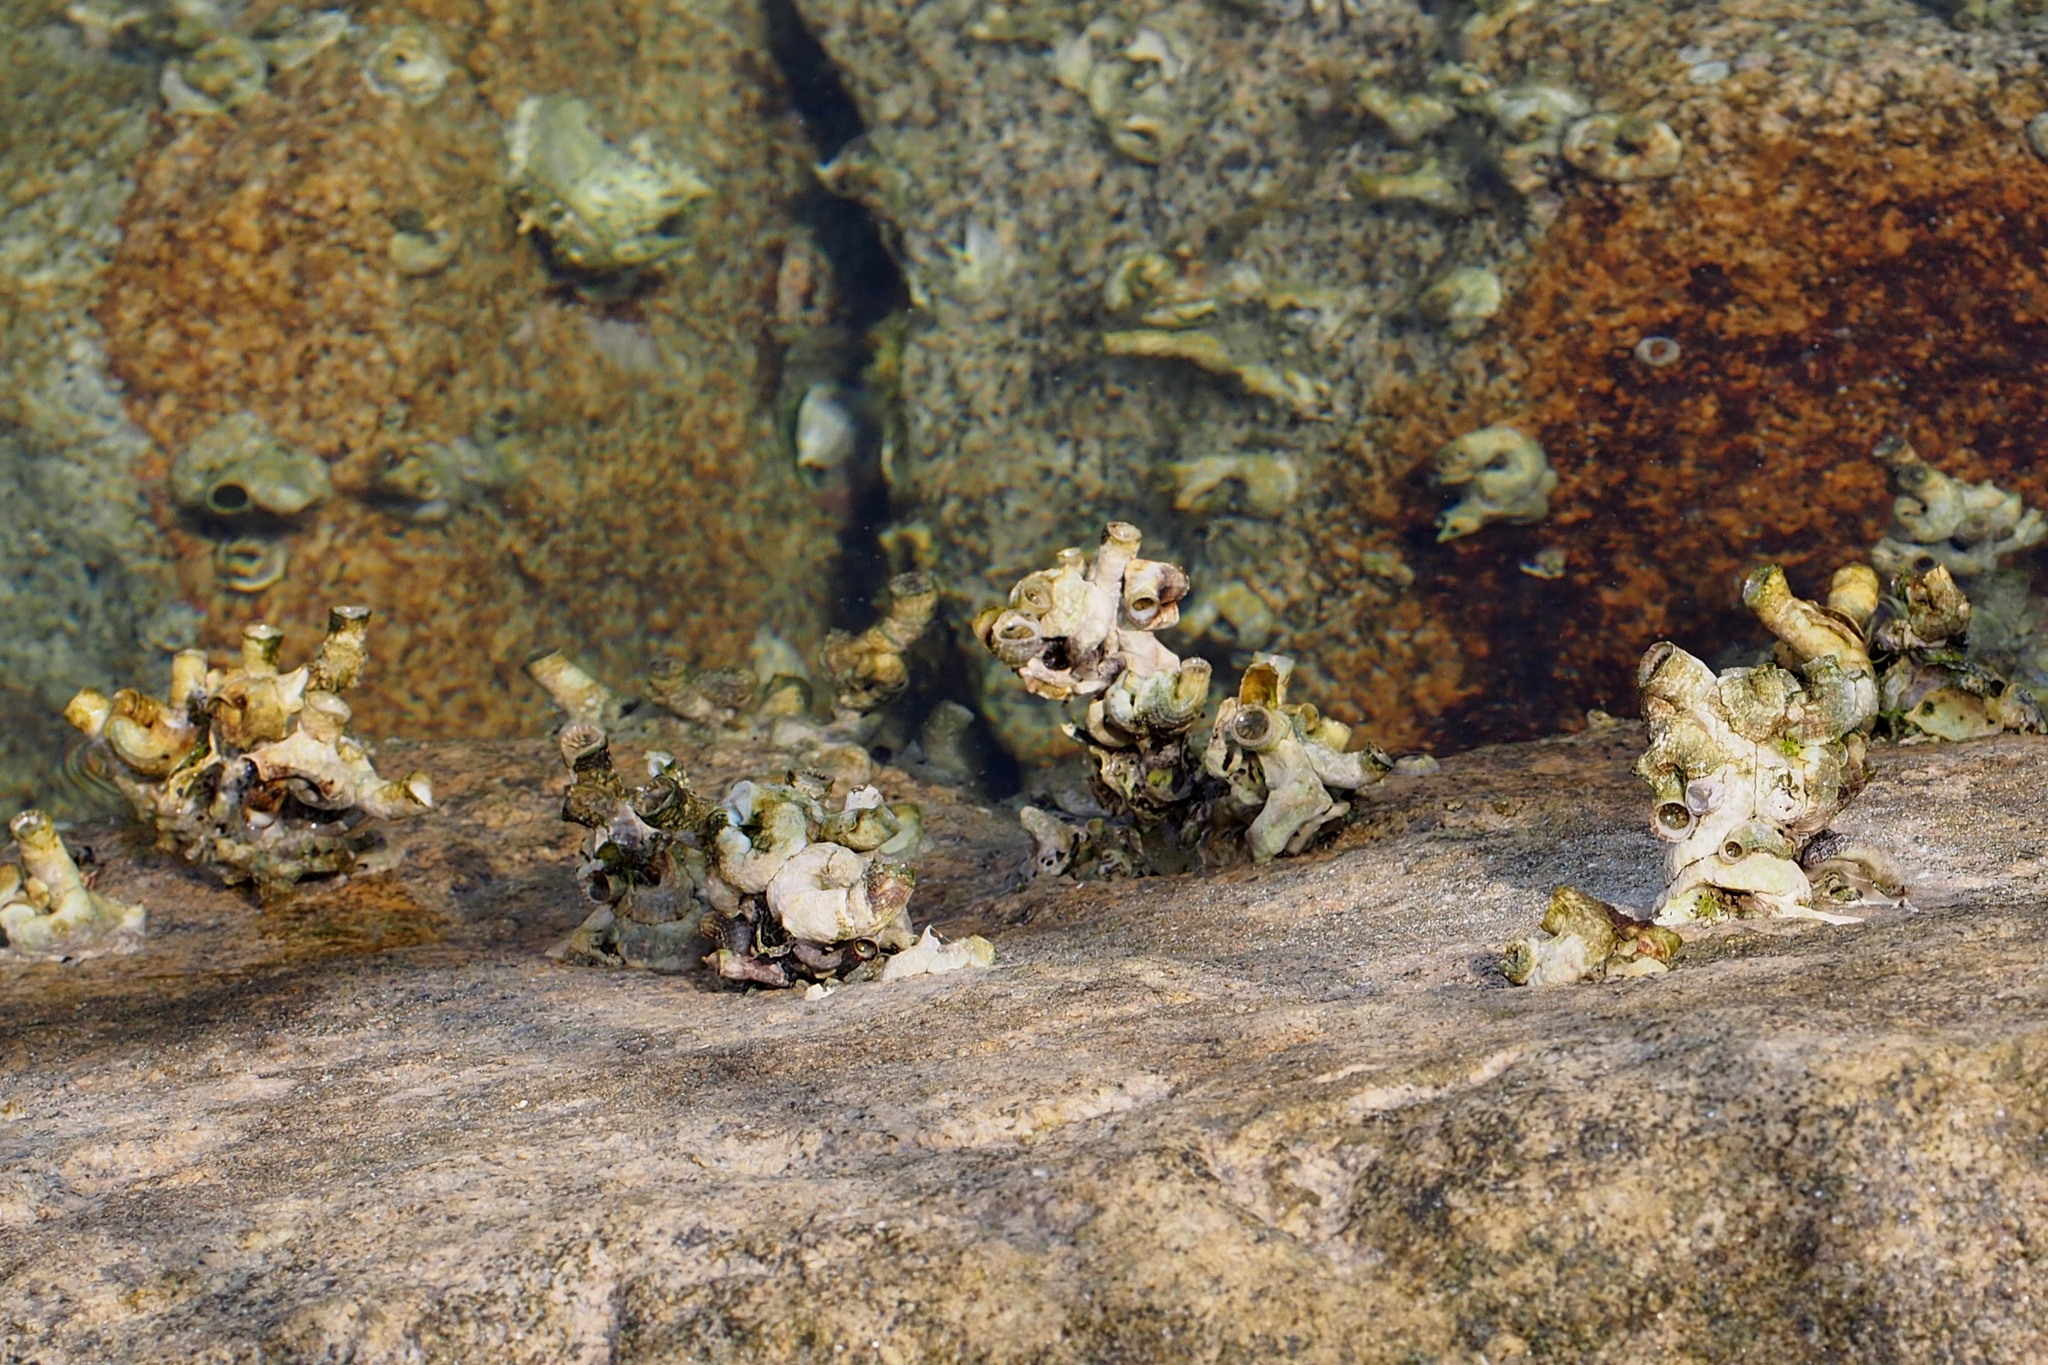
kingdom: Animalia
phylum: Mollusca
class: Gastropoda
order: Littorinimorpha
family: Vermetidae
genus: Thylacodes
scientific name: Thylacodes adamsii
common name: Scaly worm shell
